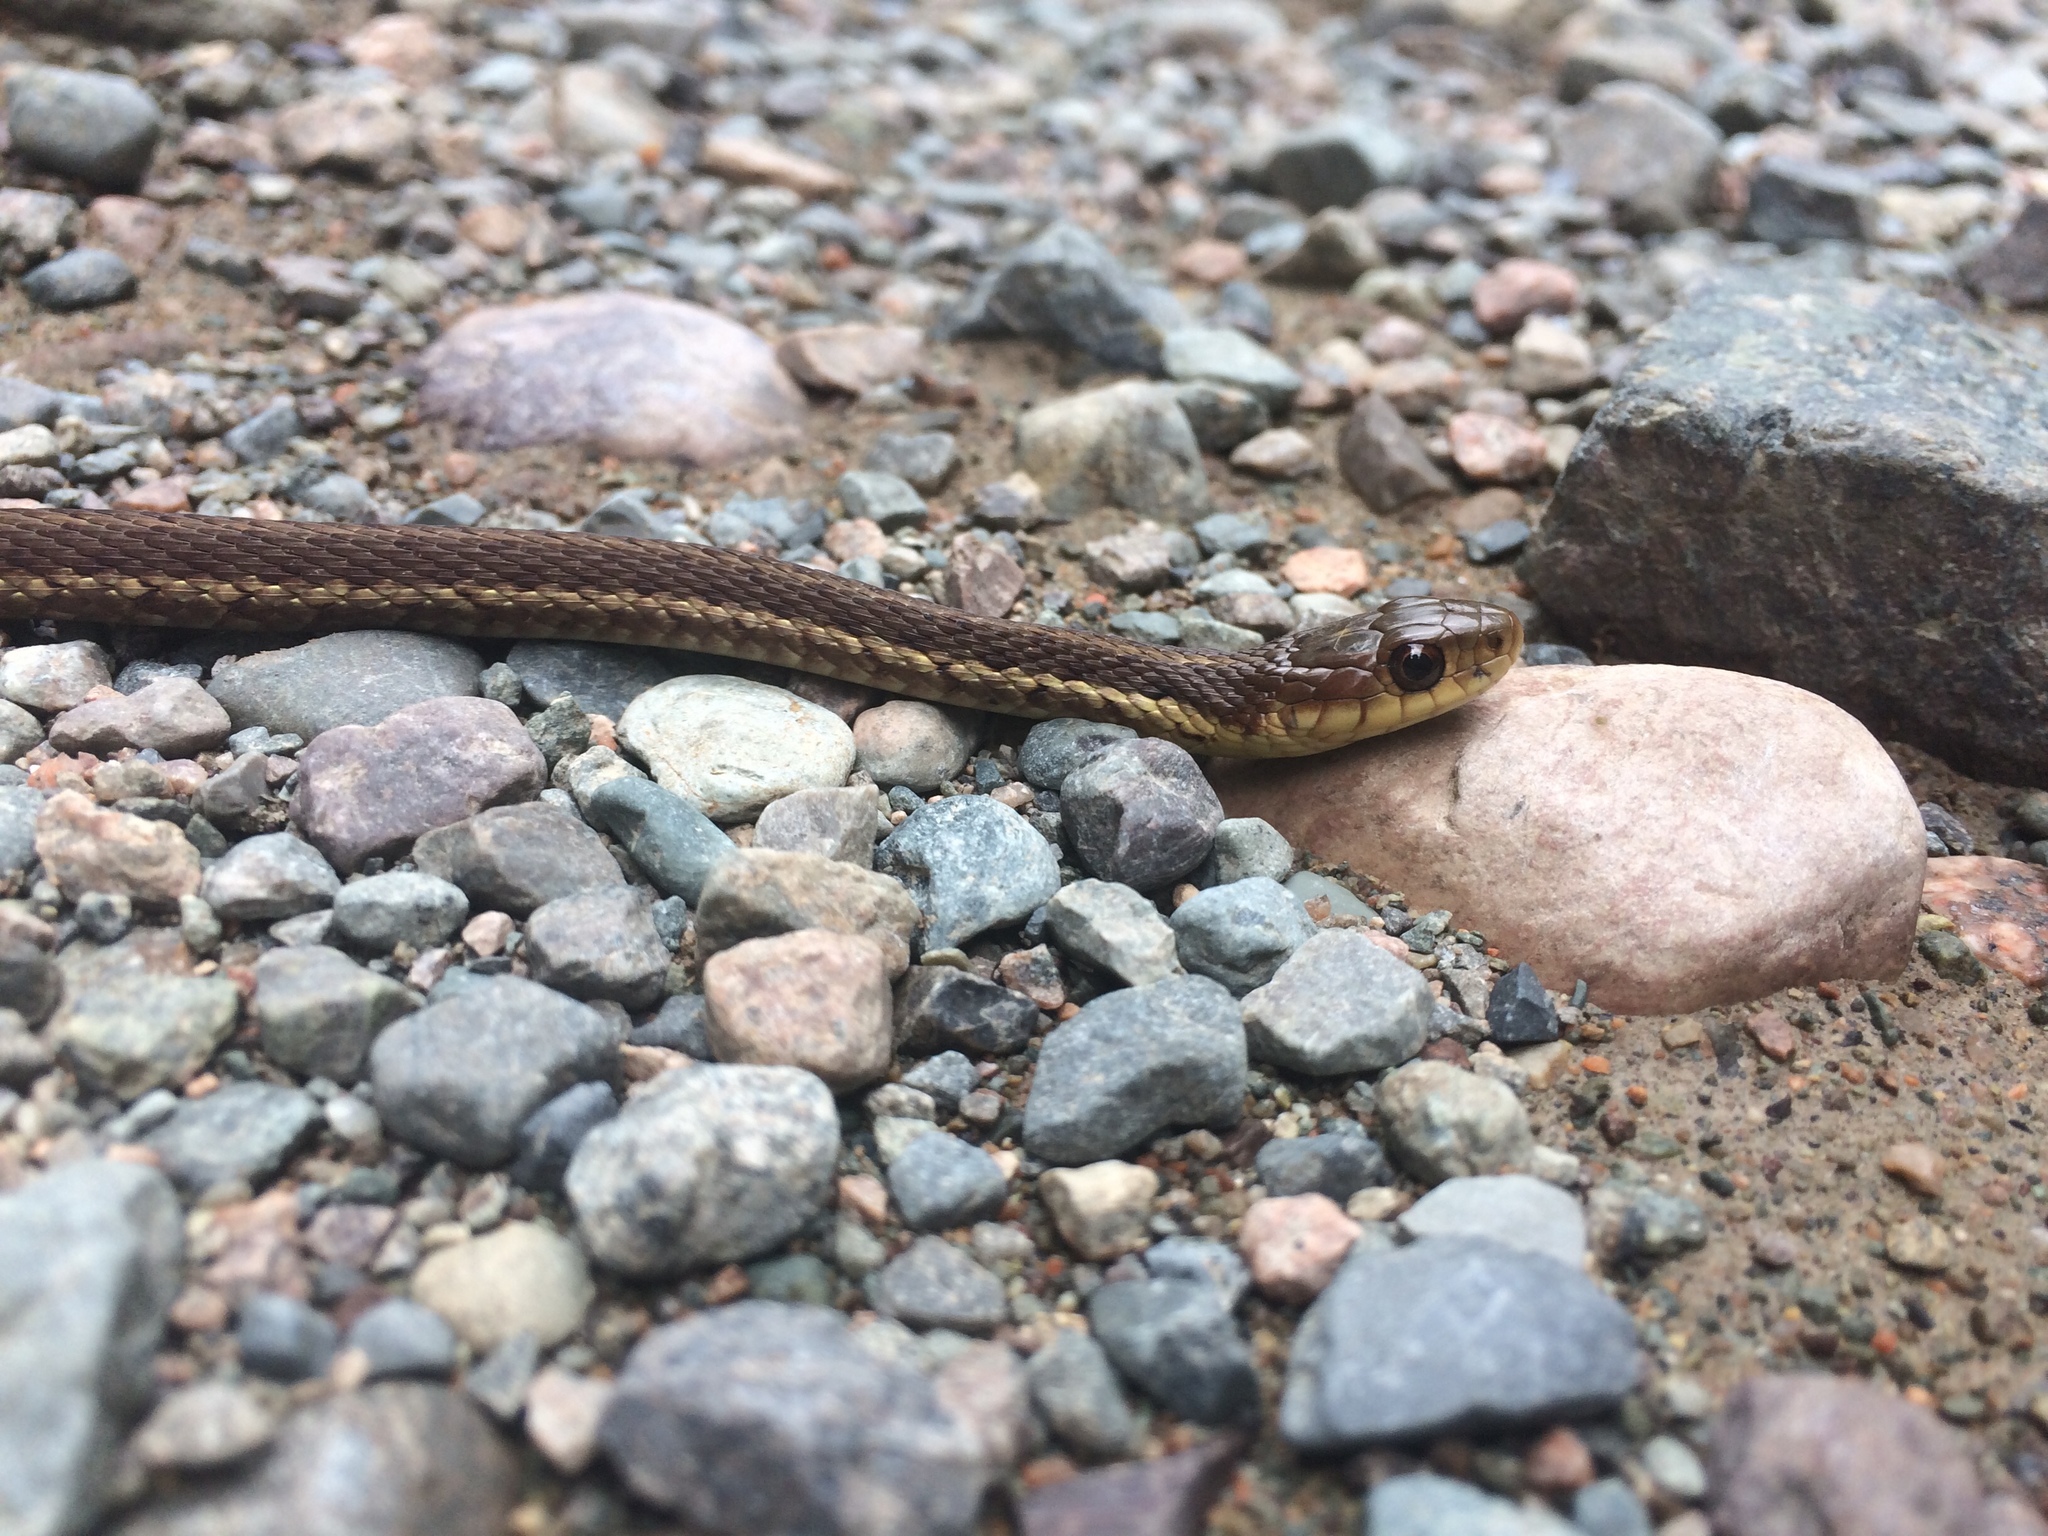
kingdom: Animalia
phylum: Chordata
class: Squamata
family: Colubridae
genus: Thamnophis
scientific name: Thamnophis sirtalis
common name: Common garter snake
